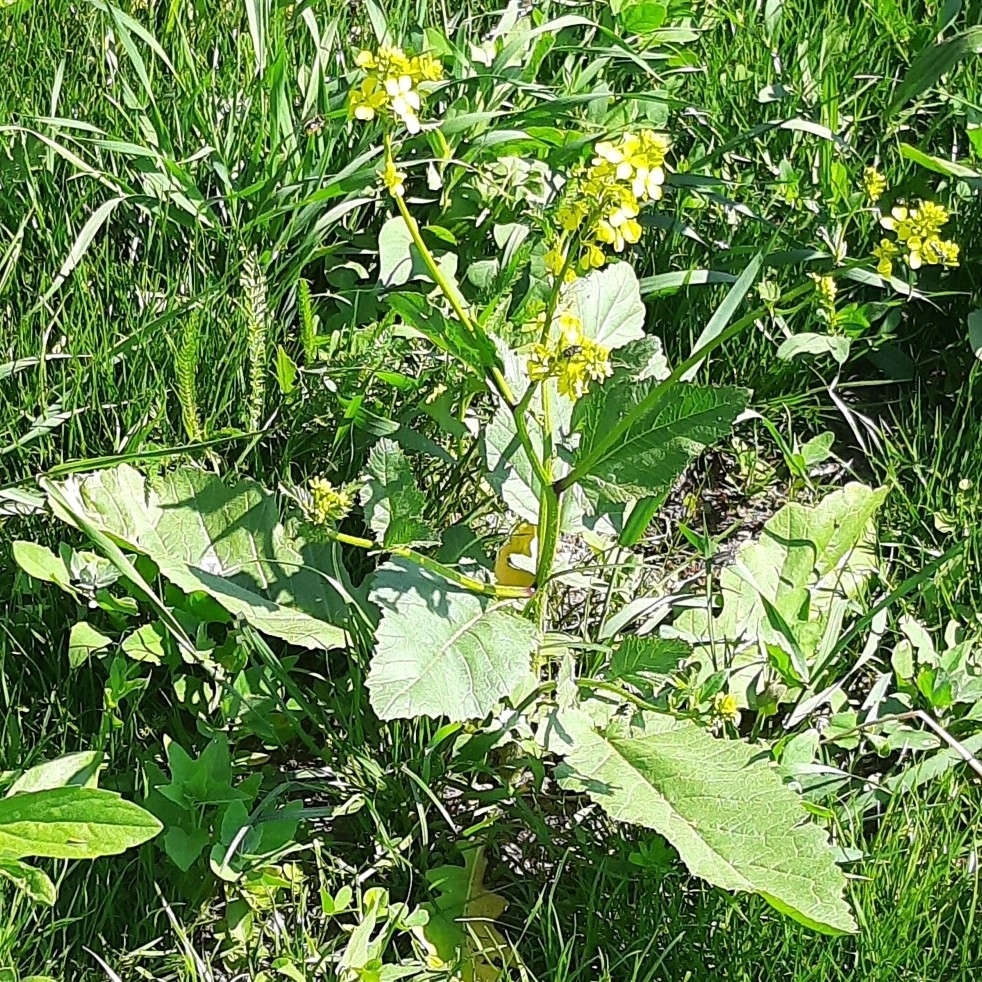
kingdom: Plantae
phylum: Tracheophyta
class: Magnoliopsida
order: Brassicales
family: Brassicaceae
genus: Sinapis
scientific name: Sinapis arvensis
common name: Charlock
